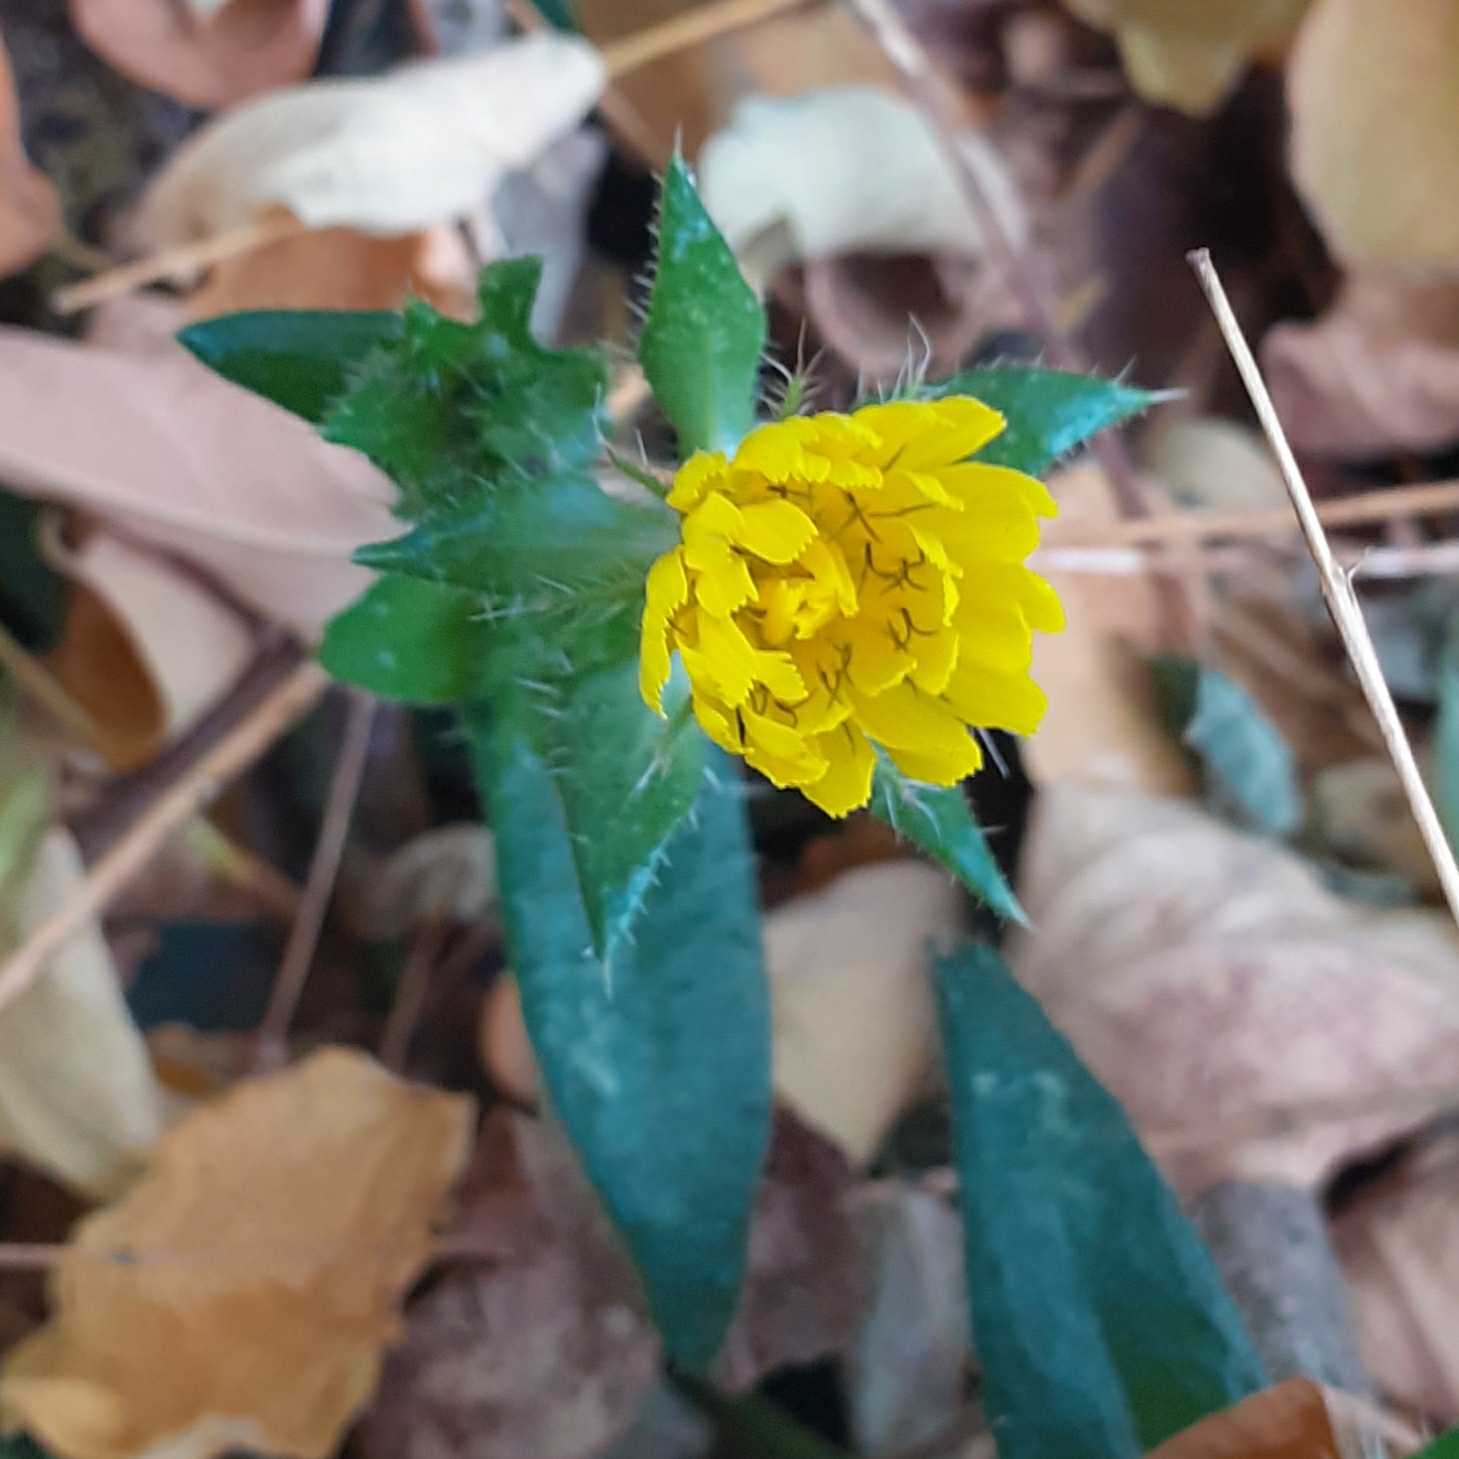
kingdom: Plantae
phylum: Tracheophyta
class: Magnoliopsida
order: Asterales
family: Asteraceae
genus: Helminthotheca
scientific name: Helminthotheca echioides
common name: Ox-tongue
